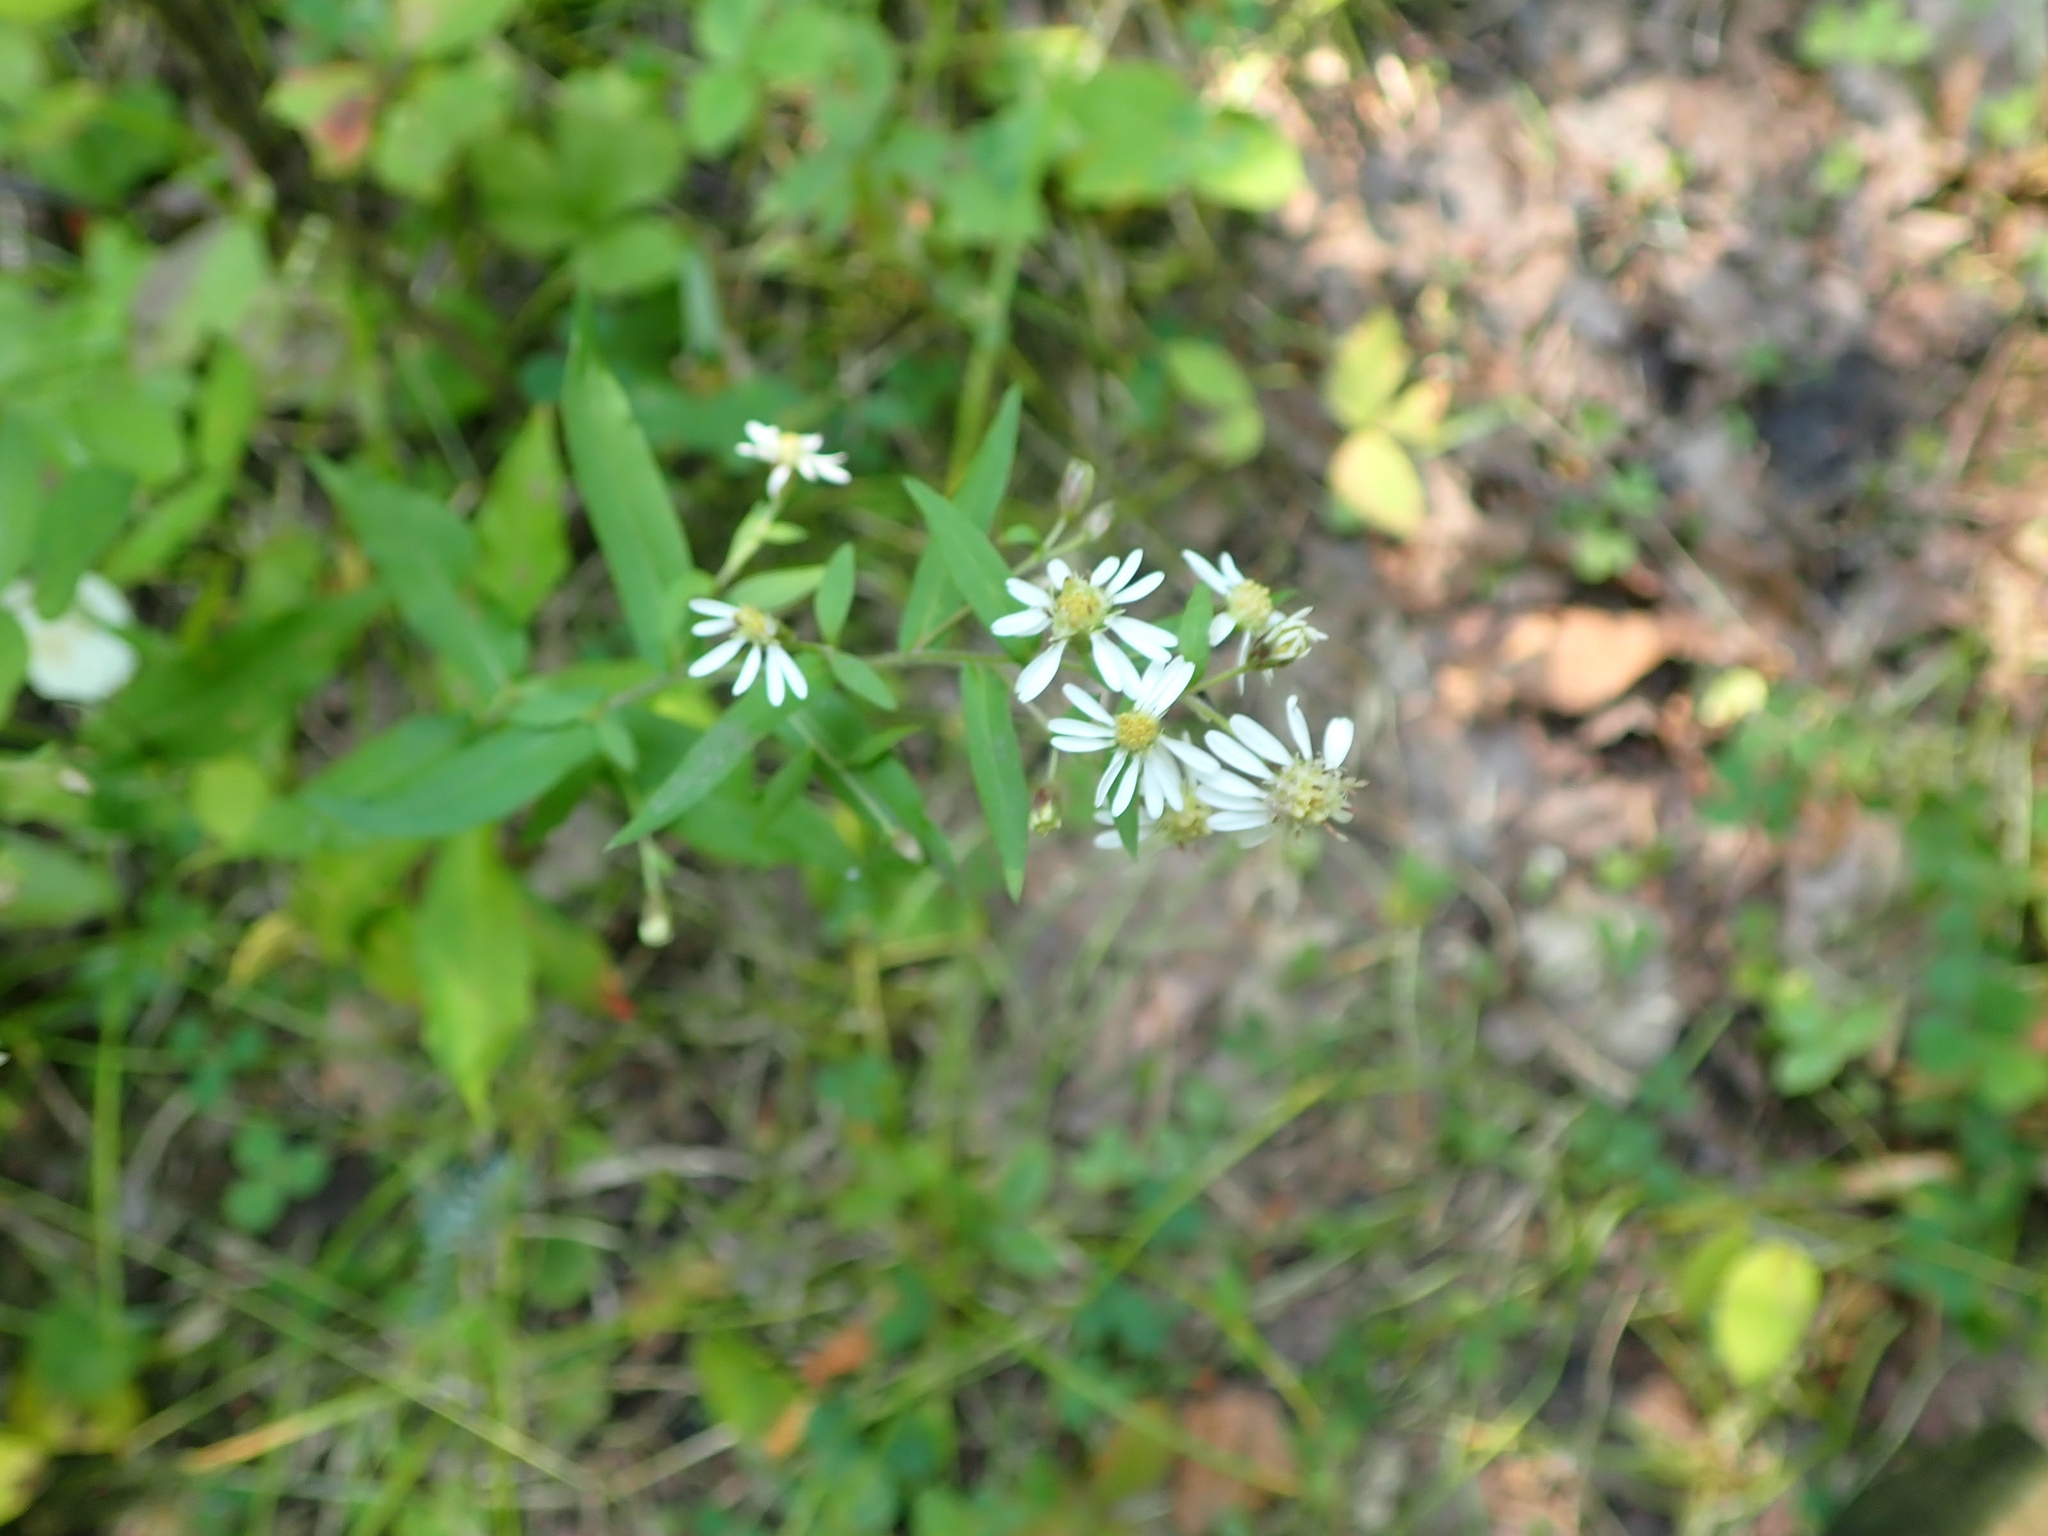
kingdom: Plantae
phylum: Tracheophyta
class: Magnoliopsida
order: Asterales
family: Asteraceae
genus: Doellingeria
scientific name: Doellingeria umbellata
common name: Flat-top white aster
